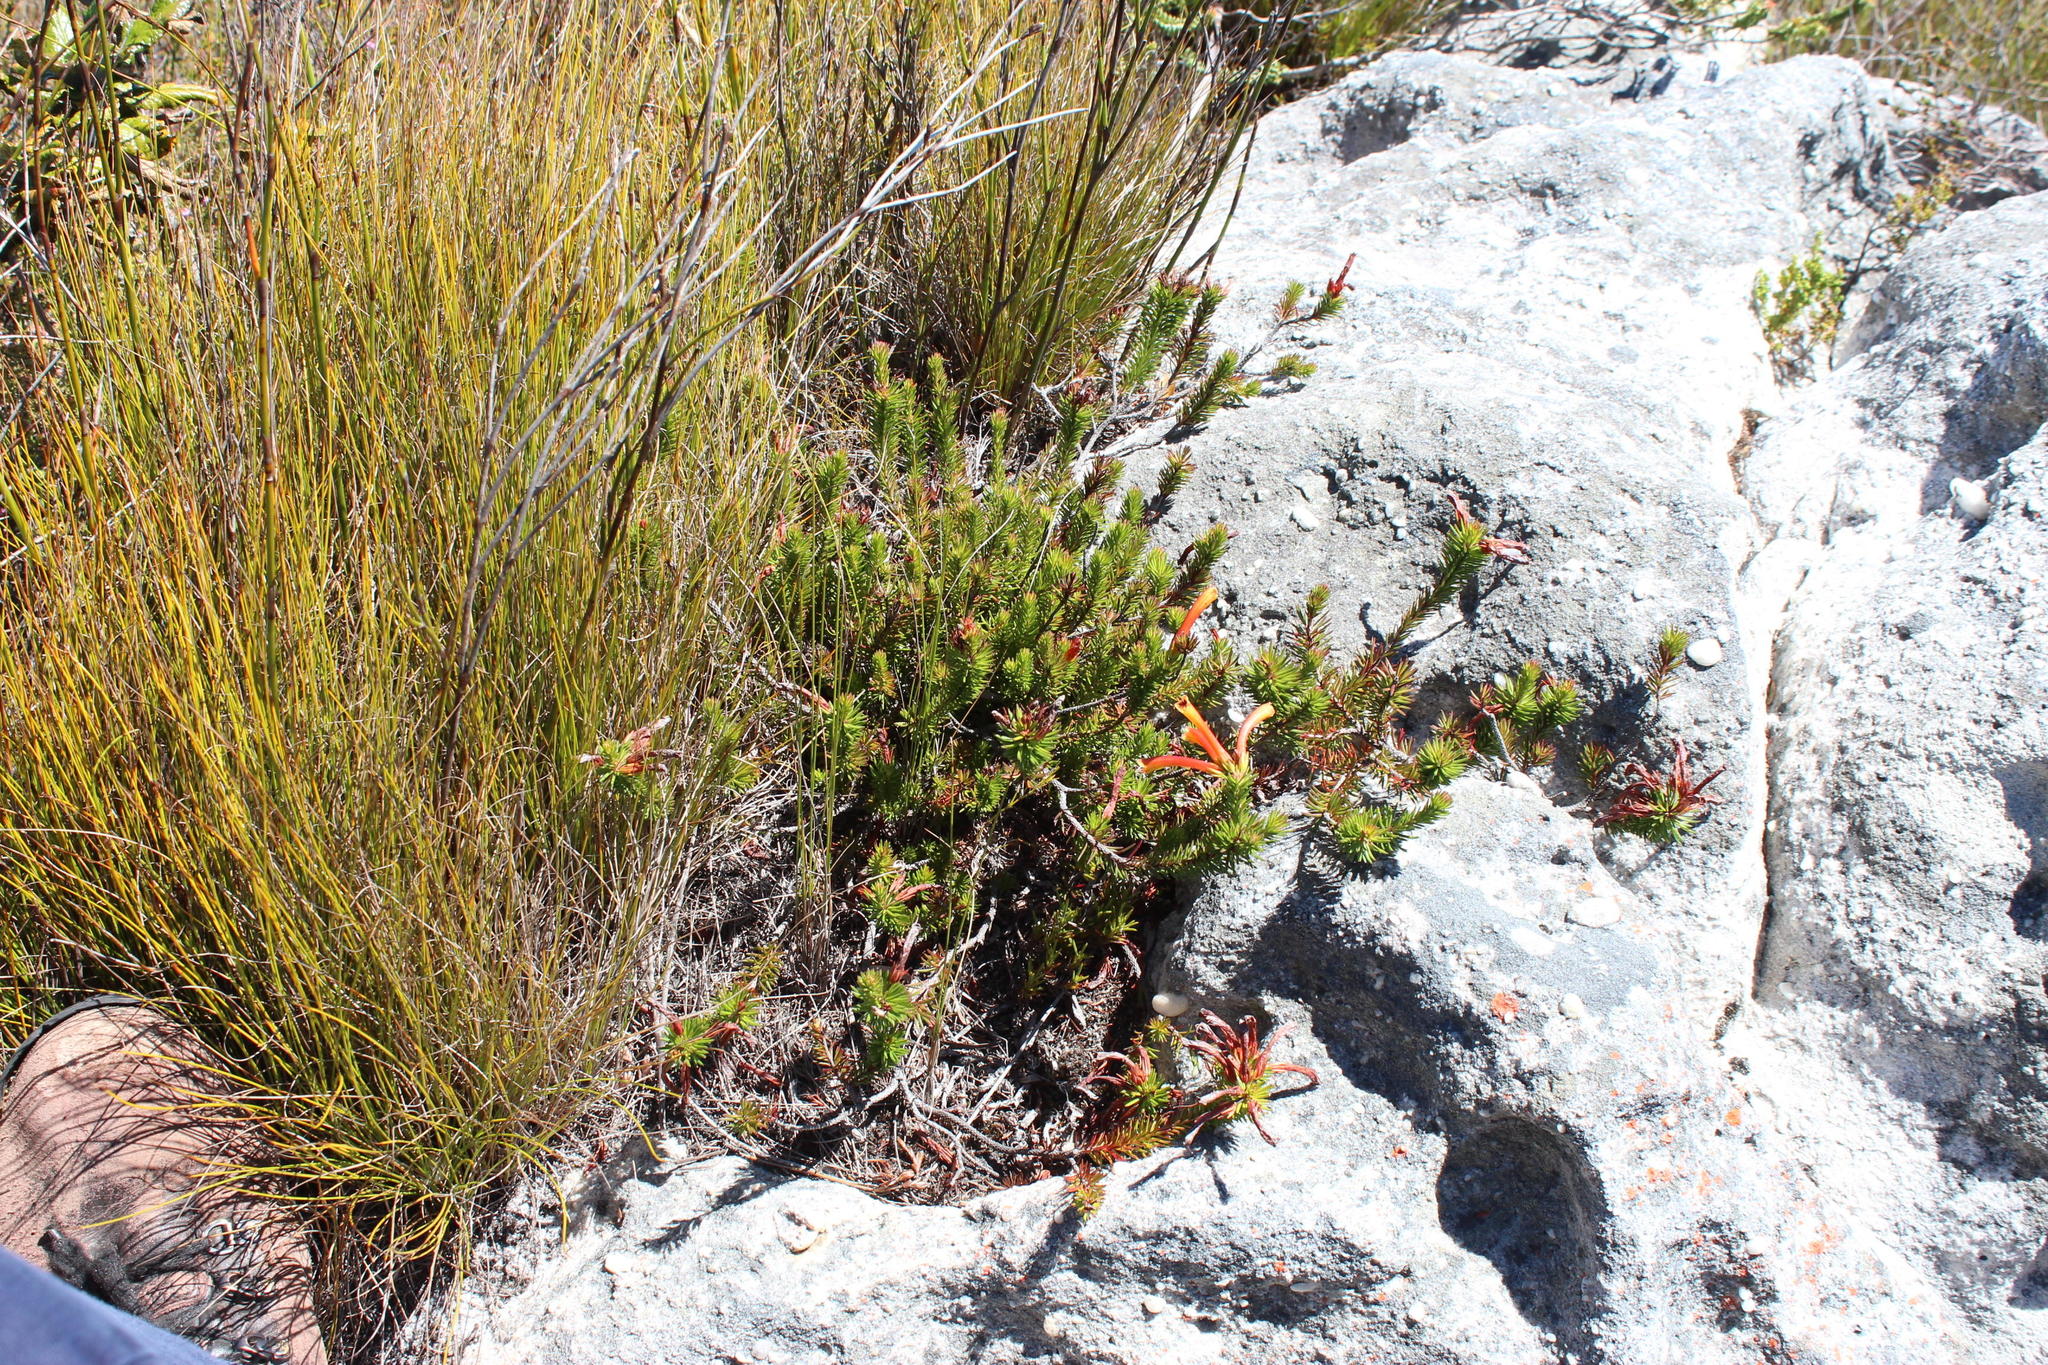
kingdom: Plantae
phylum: Tracheophyta
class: Magnoliopsida
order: Ericales
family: Ericaceae
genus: Erica
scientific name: Erica quadrisulcata
